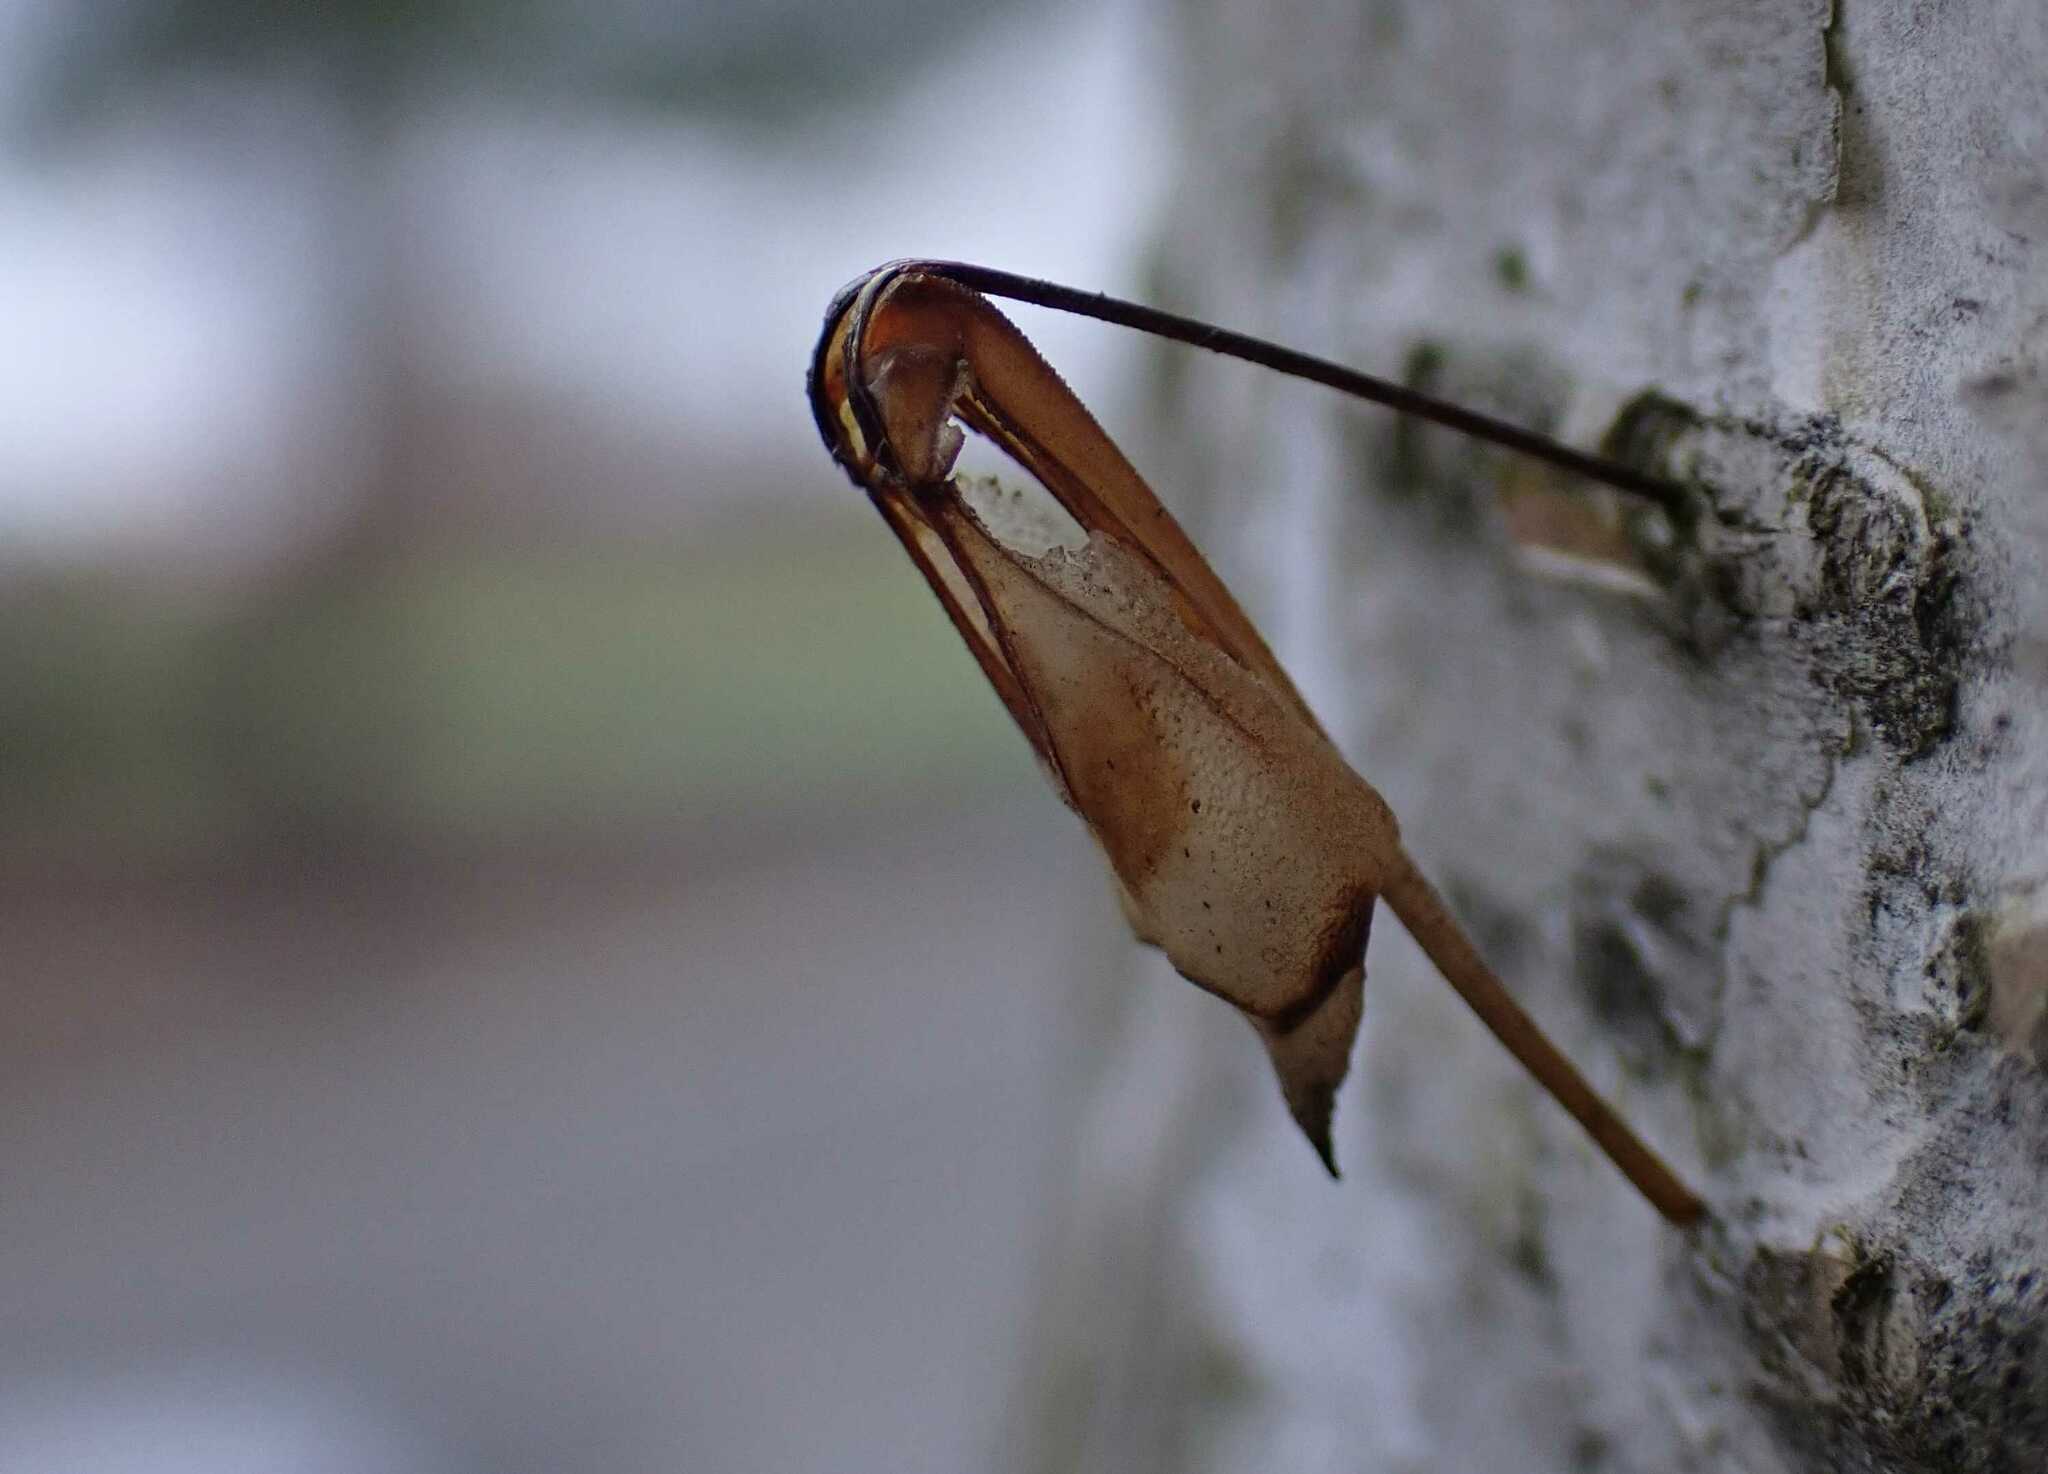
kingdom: Animalia
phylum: Arthropoda
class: Insecta
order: Hymenoptera
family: Siricidae
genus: Tremex
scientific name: Tremex fuscicornis
